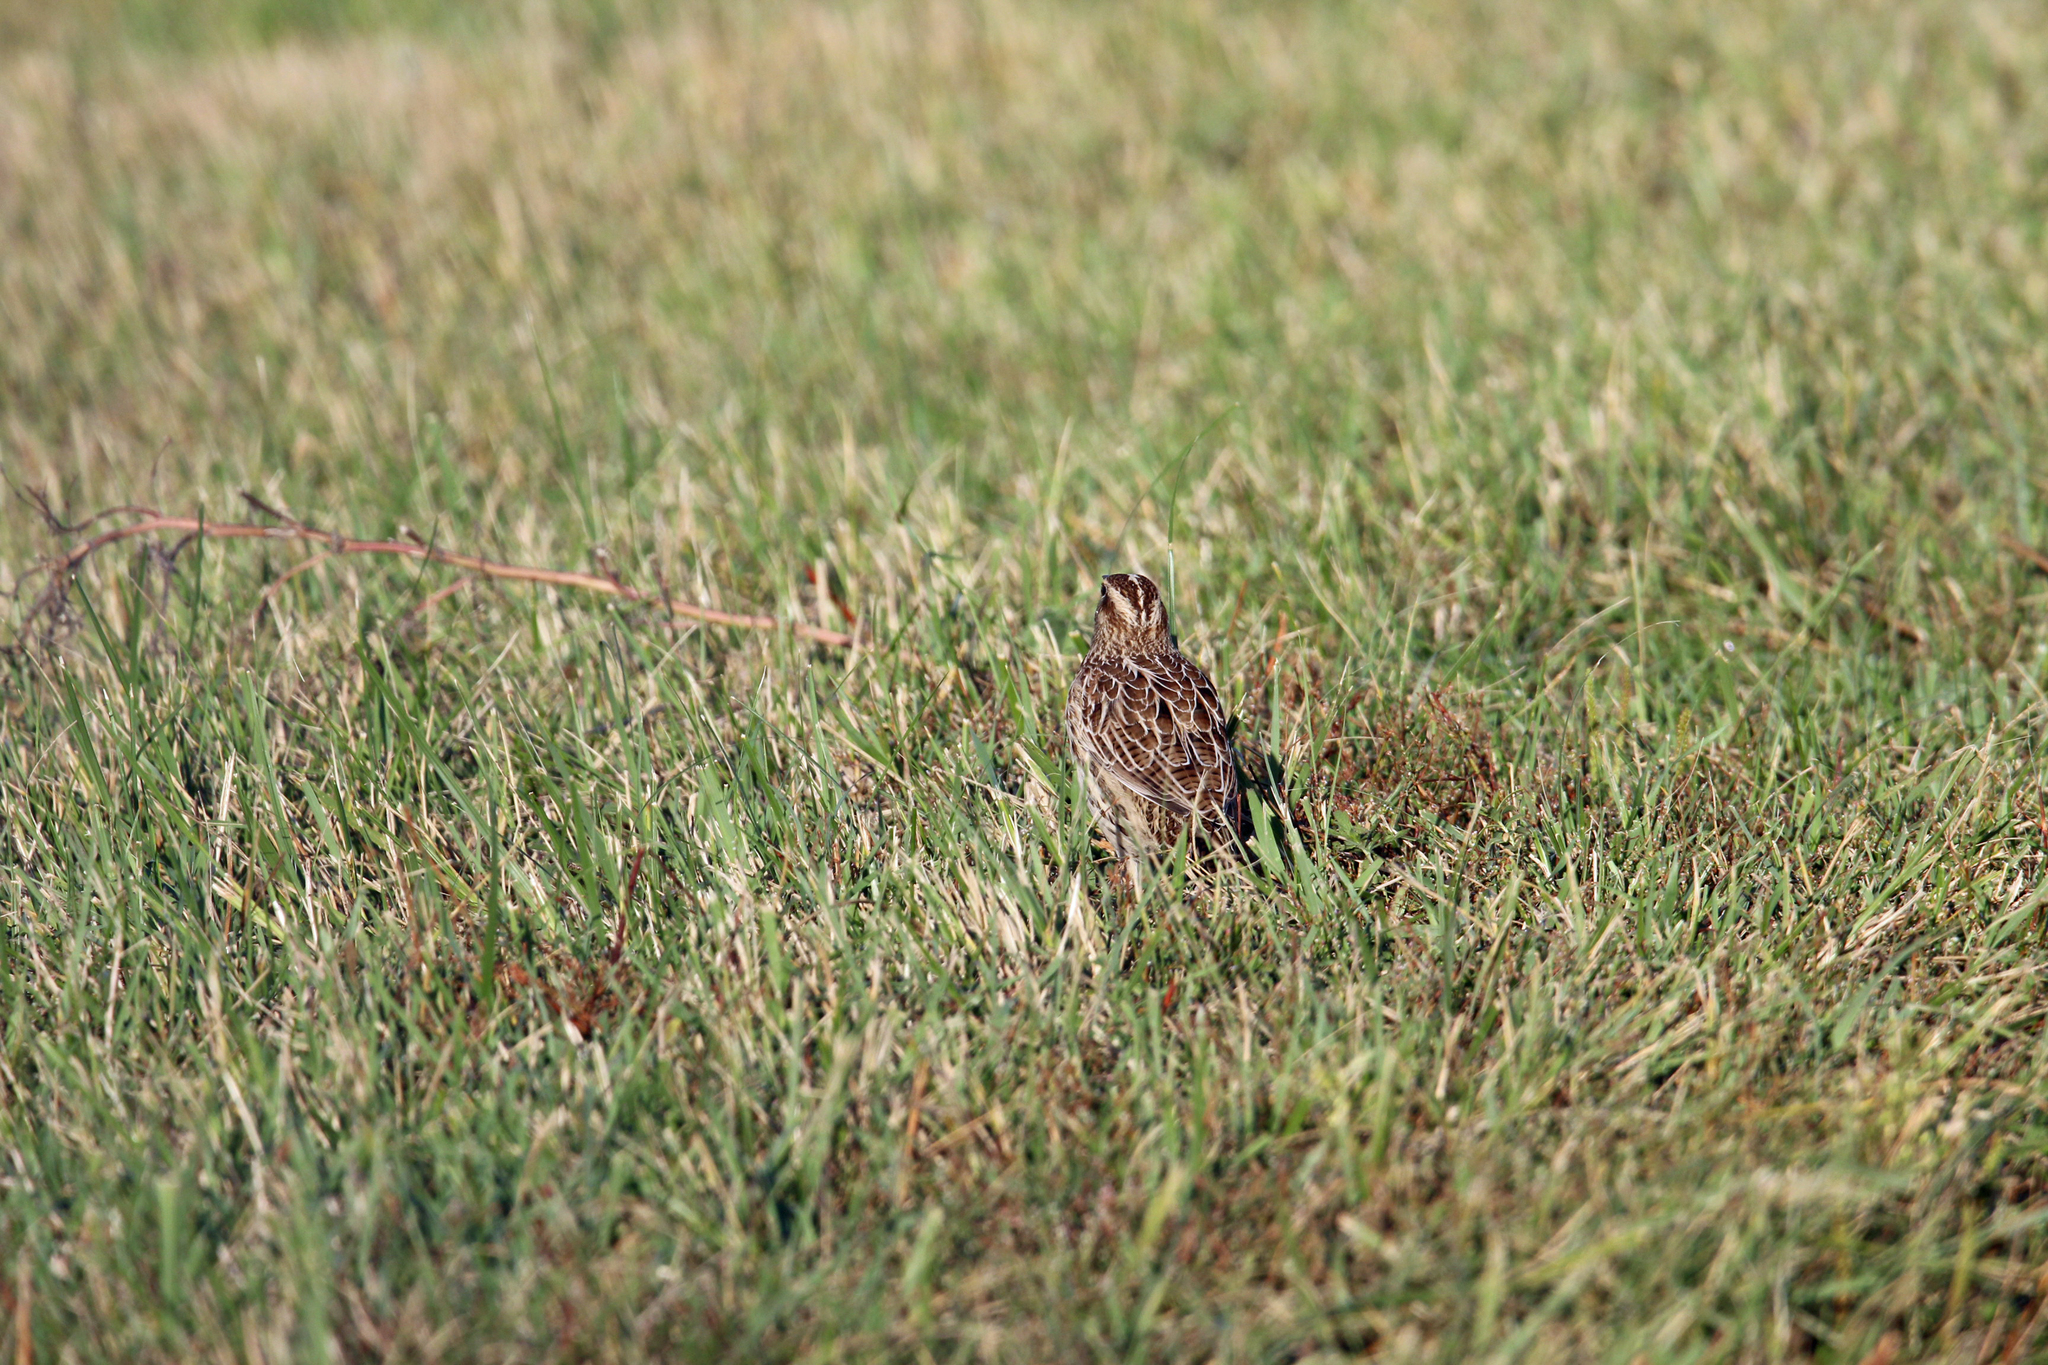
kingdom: Animalia
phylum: Chordata
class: Aves
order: Passeriformes
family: Icteridae
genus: Sturnella
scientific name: Sturnella neglecta
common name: Western meadowlark
